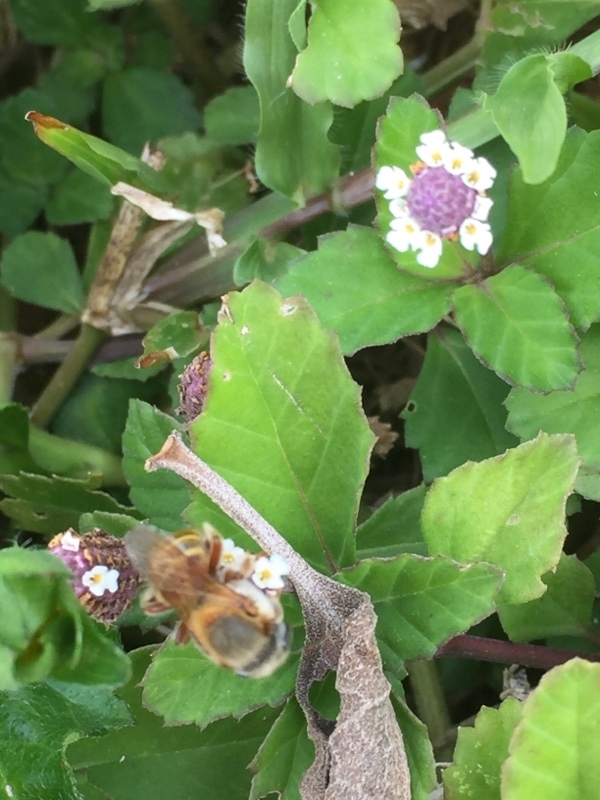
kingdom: Plantae
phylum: Tracheophyta
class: Magnoliopsida
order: Lamiales
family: Verbenaceae
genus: Phyla
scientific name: Phyla nodiflora
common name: Frogfruit
